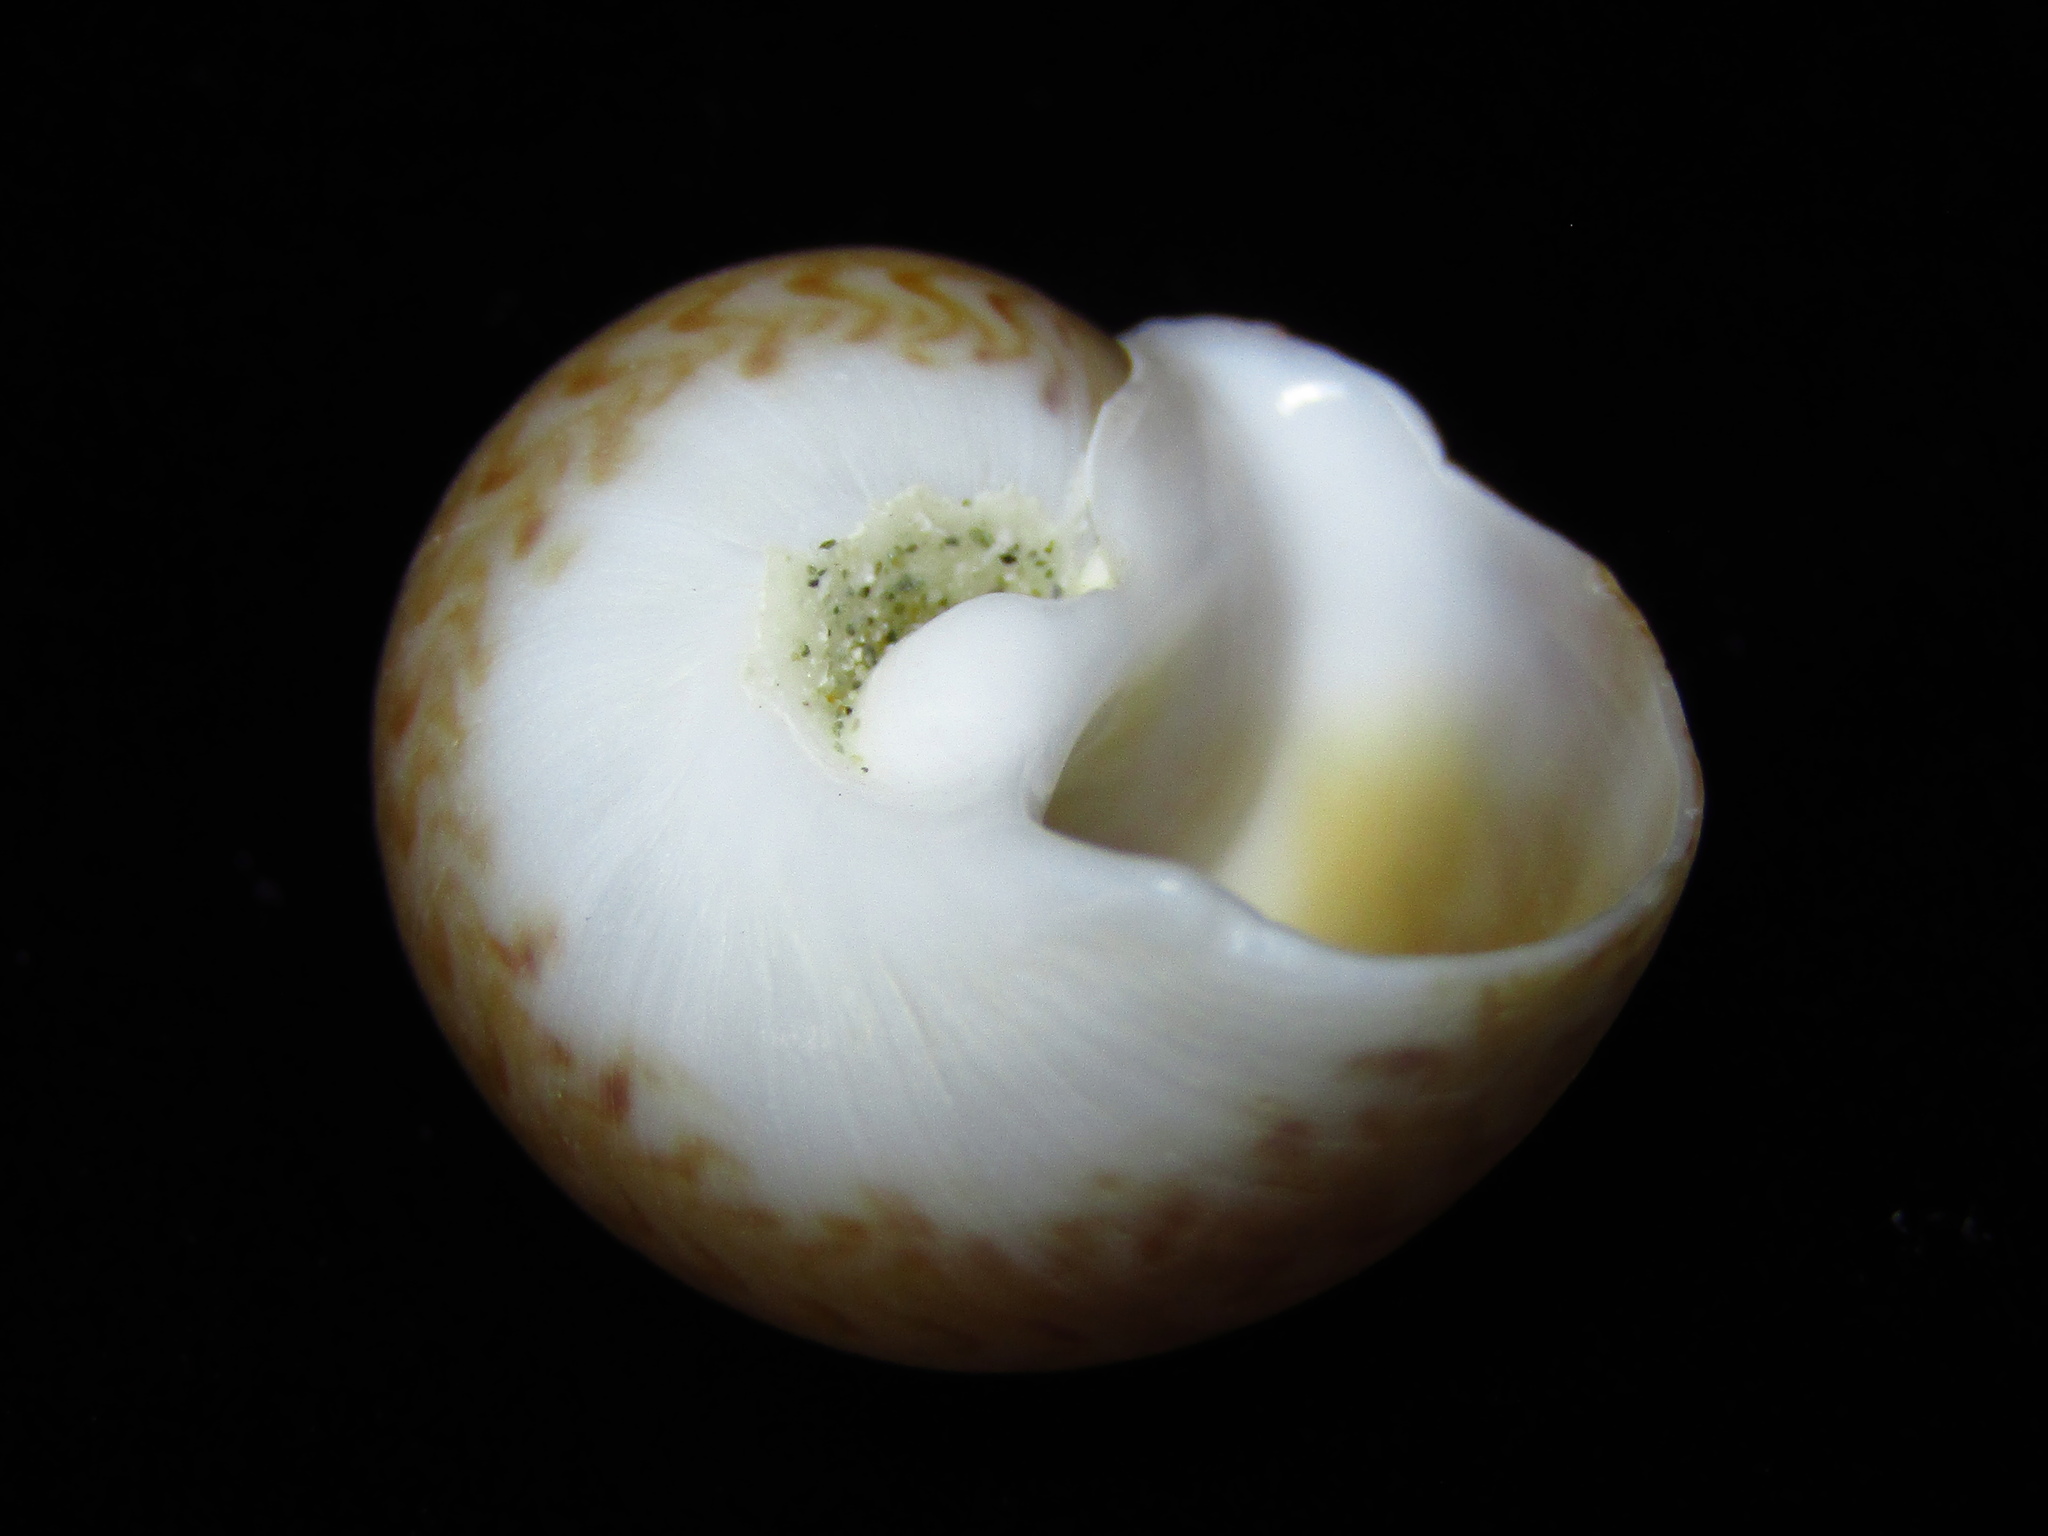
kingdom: Animalia
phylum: Mollusca
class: Gastropoda
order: Littorinimorpha
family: Naticidae
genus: Tanea
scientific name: Tanea zelandica
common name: New zealand moonsnail
